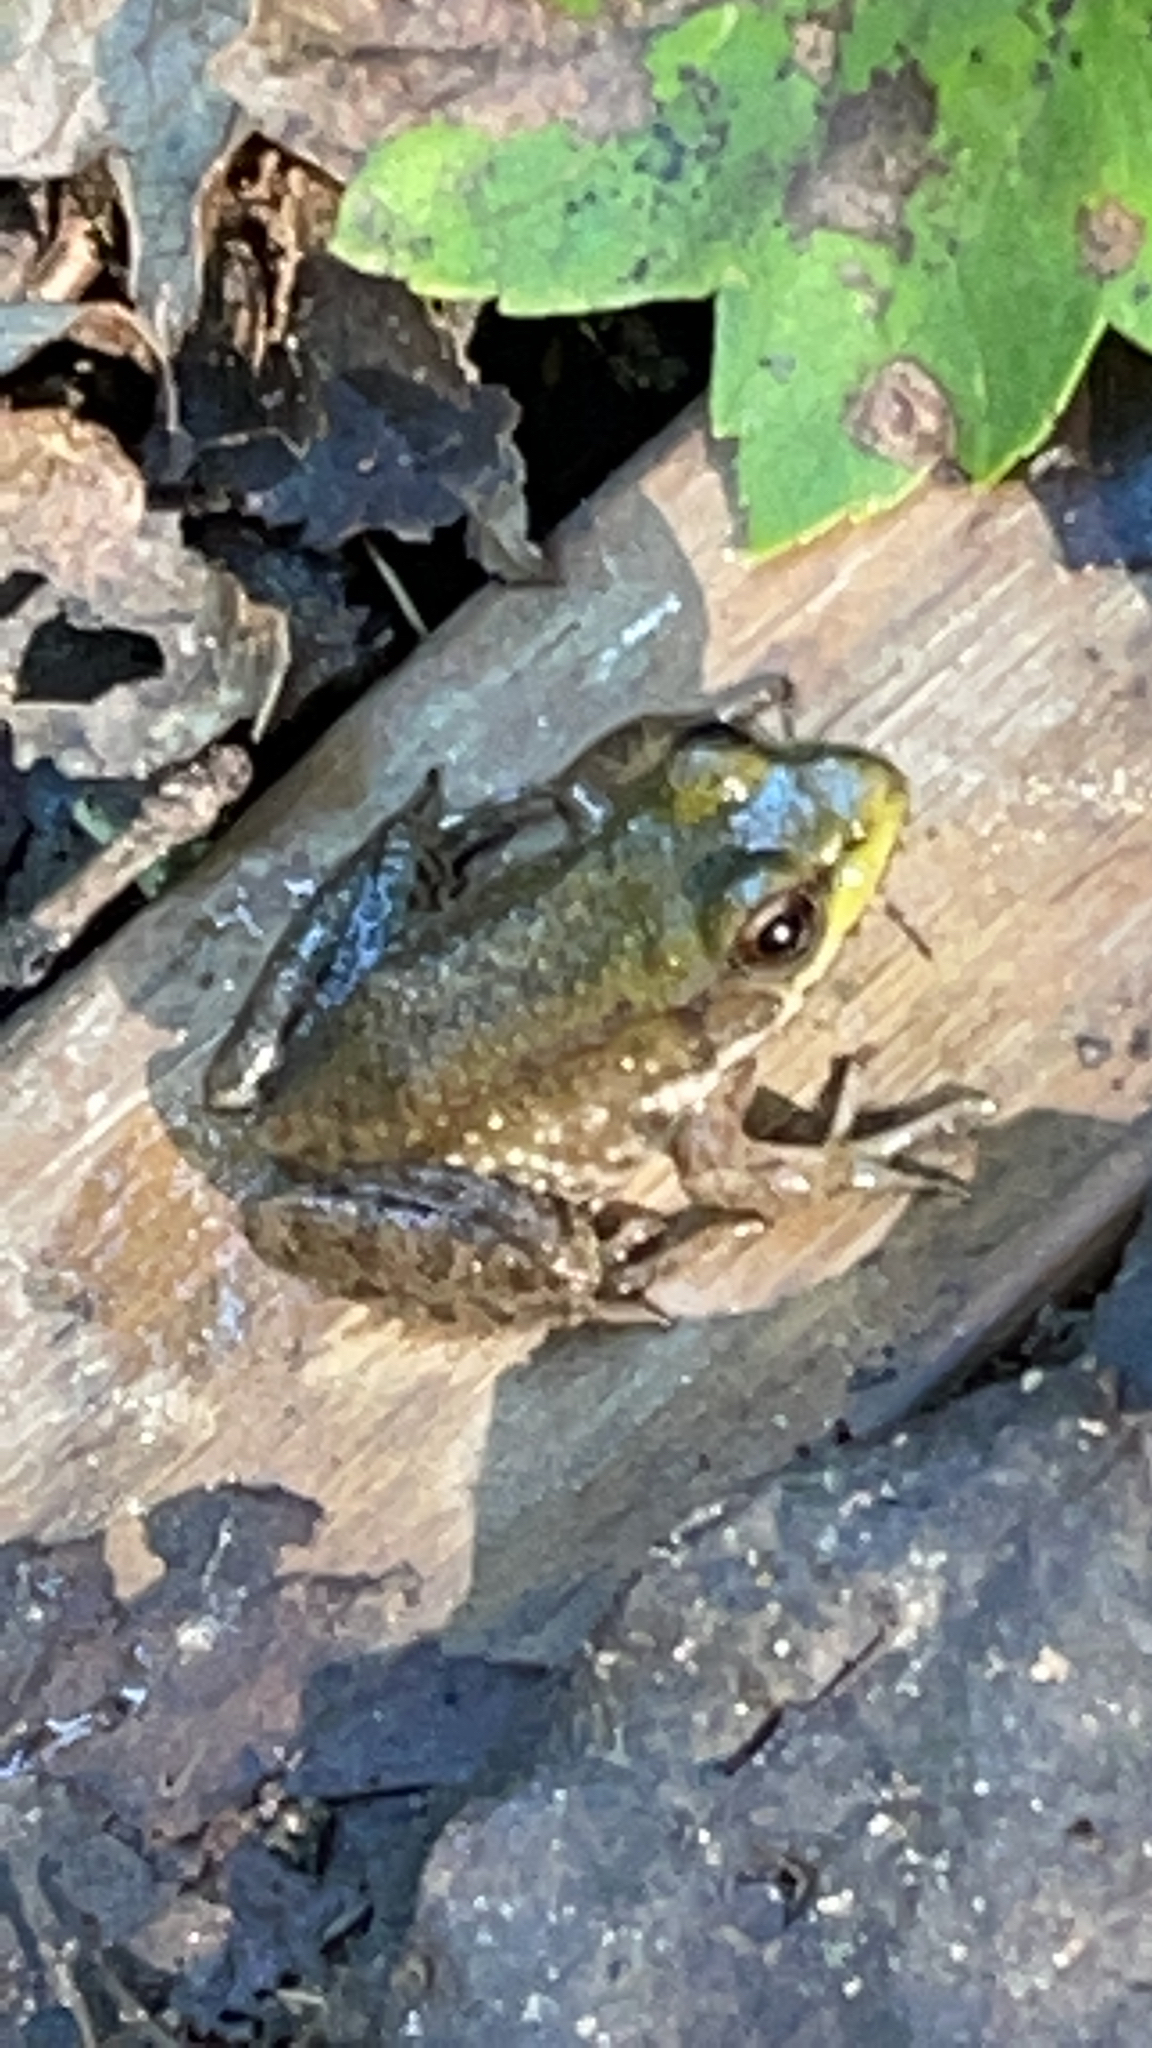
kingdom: Animalia
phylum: Chordata
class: Amphibia
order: Anura
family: Ranidae
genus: Lithobates
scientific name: Lithobates clamitans
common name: Green frog
